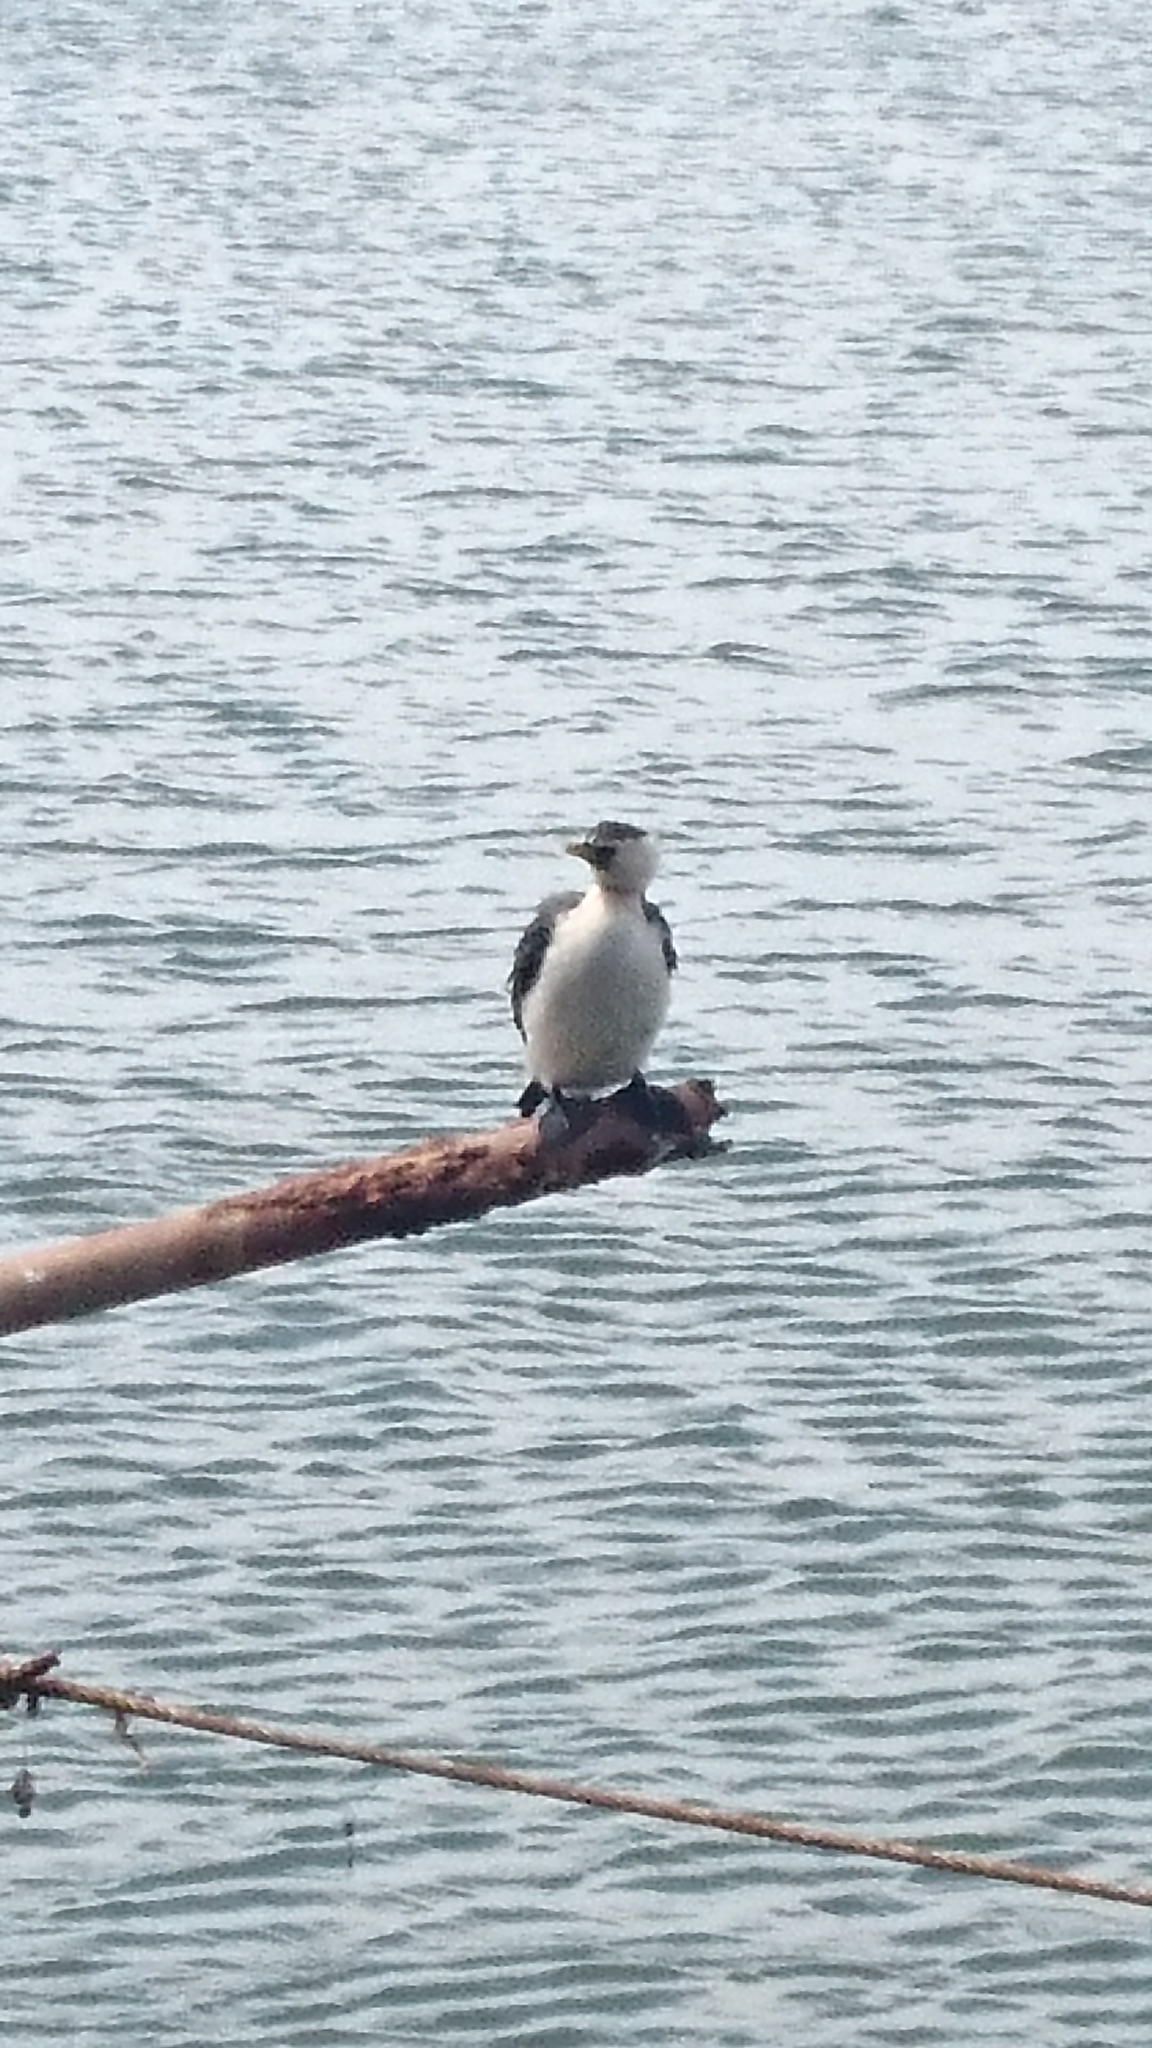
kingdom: Animalia
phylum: Chordata
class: Aves
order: Suliformes
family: Phalacrocoracidae
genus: Microcarbo
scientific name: Microcarbo melanoleucos
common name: Little pied cormorant
